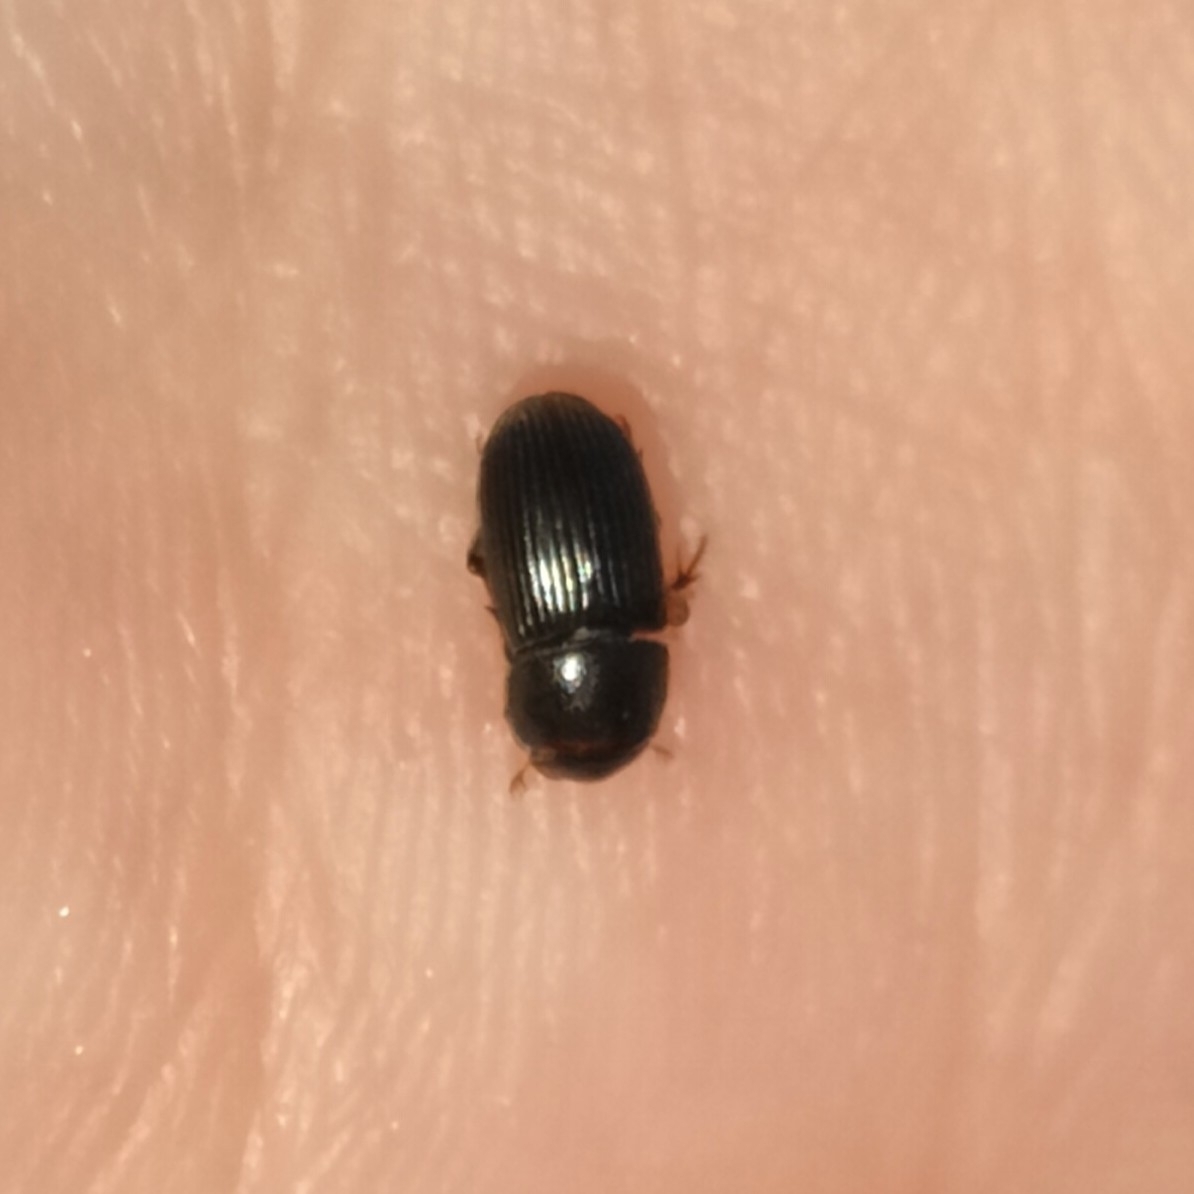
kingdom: Animalia
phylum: Arthropoda
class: Insecta
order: Coleoptera
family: Scarabaeidae
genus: Acrossus
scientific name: Acrossus rufipes
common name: Night-flying dung beetle
